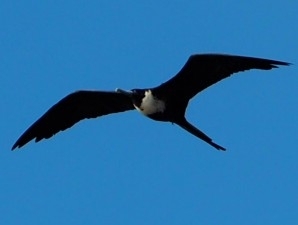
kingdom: Animalia
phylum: Chordata
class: Aves
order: Suliformes
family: Fregatidae
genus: Fregata
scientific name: Fregata magnificens
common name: Magnificent frigatebird
